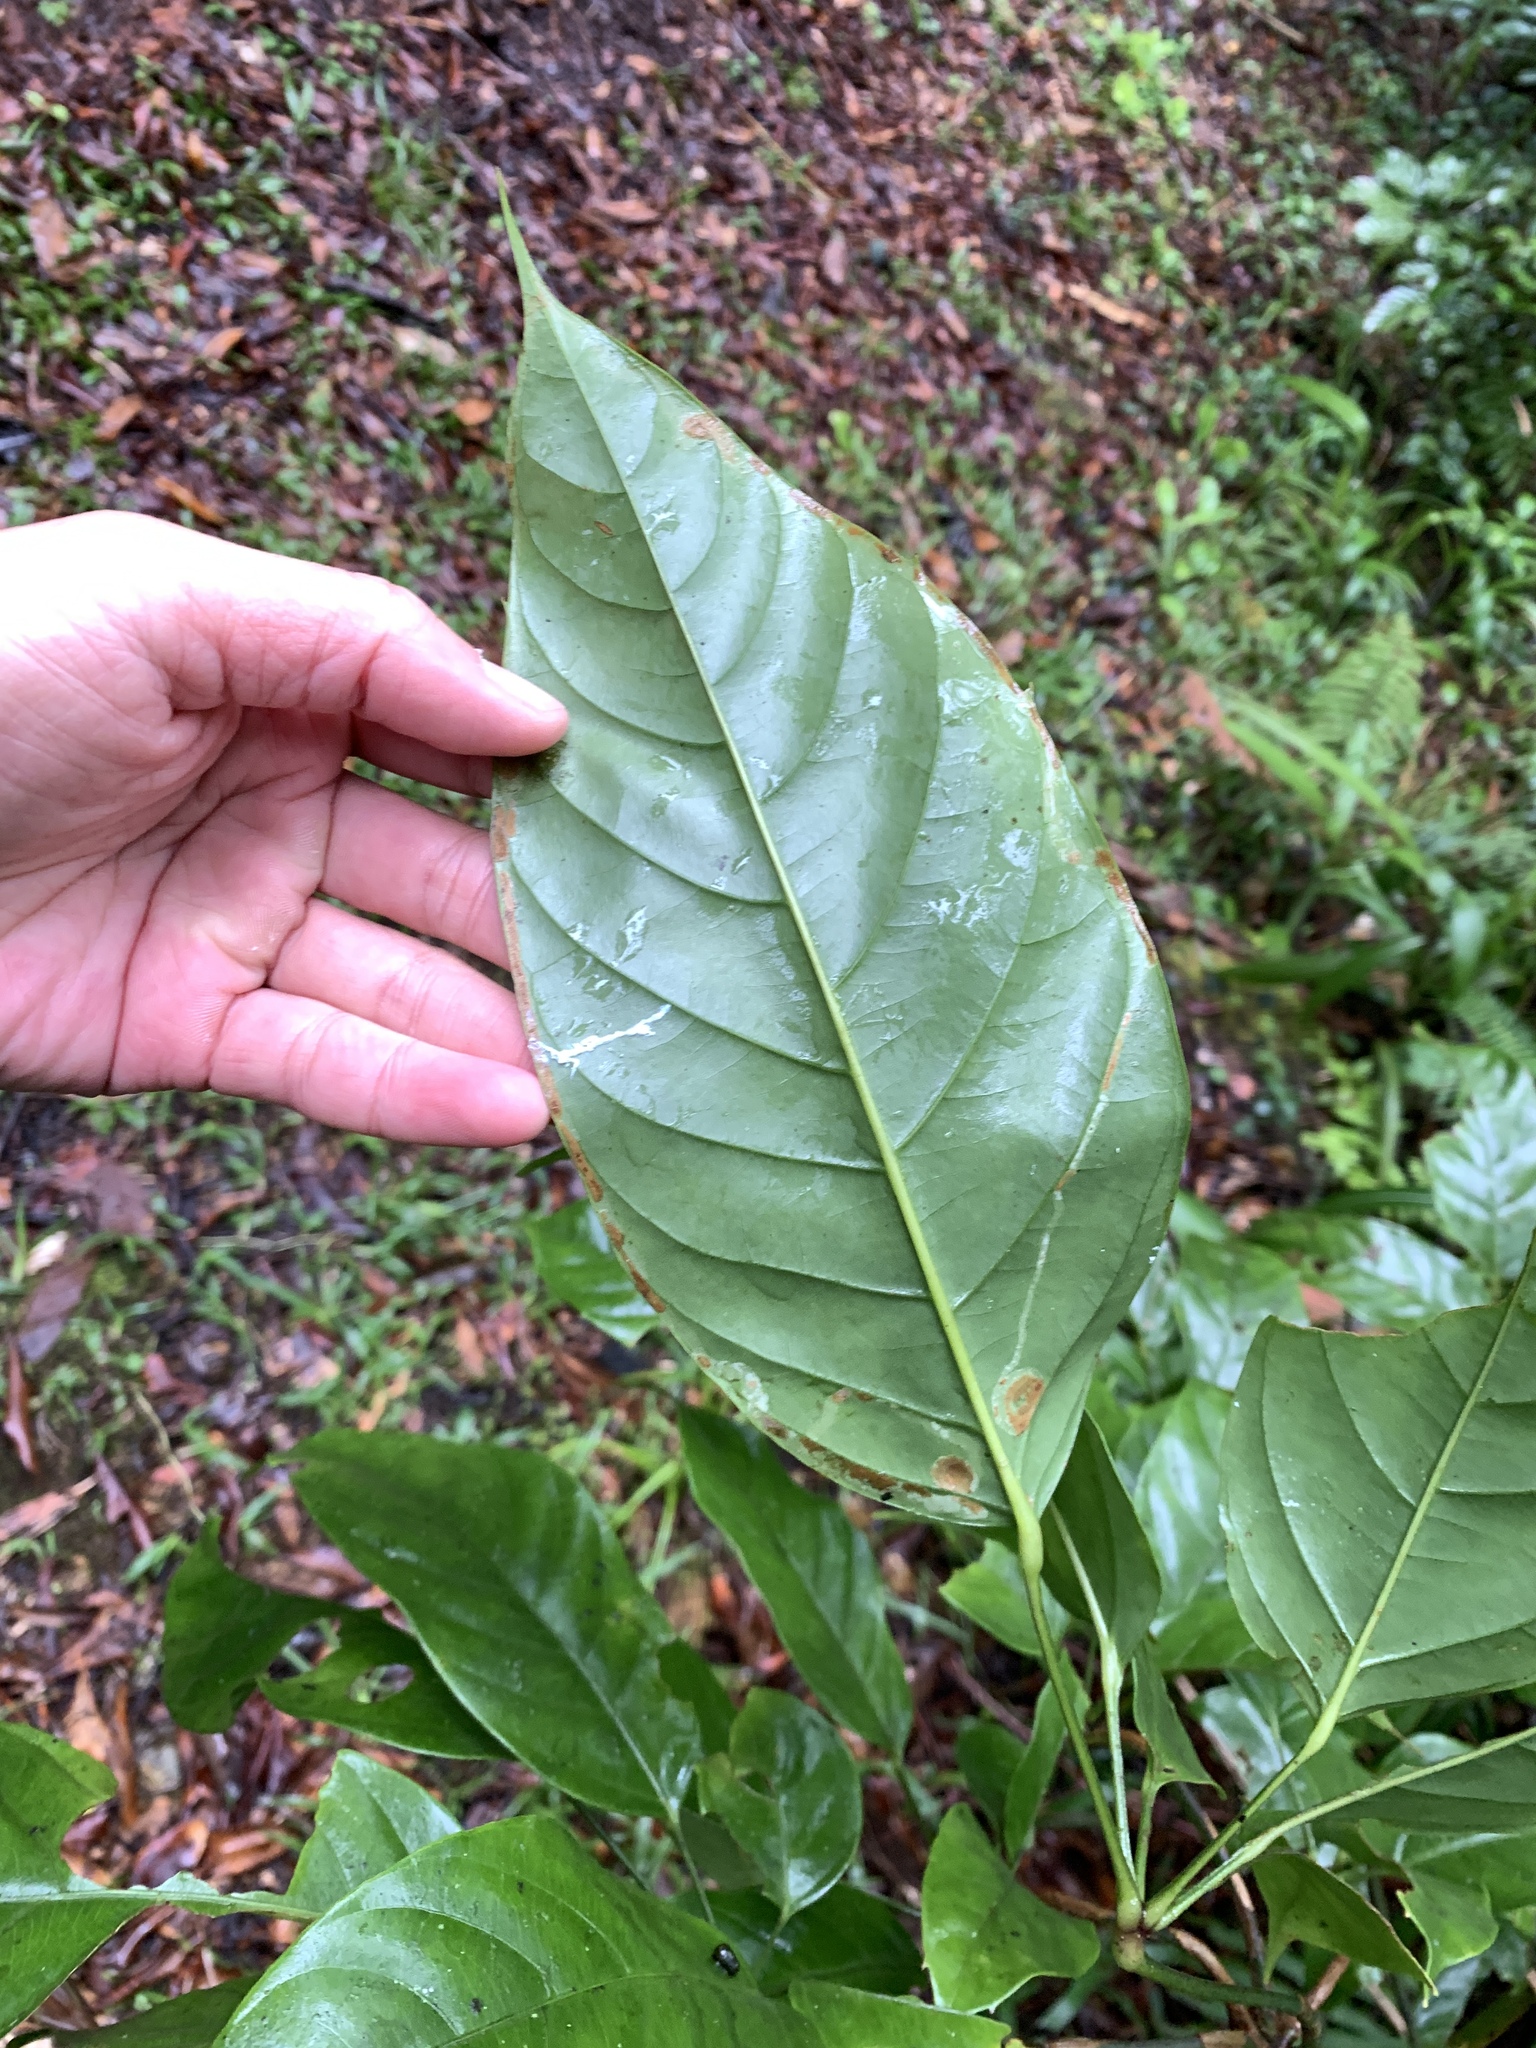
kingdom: Plantae
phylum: Tracheophyta
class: Magnoliopsida
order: Apiales
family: Araliaceae
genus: Heptapleurum
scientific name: Heptapleurum bipalmatifolium
